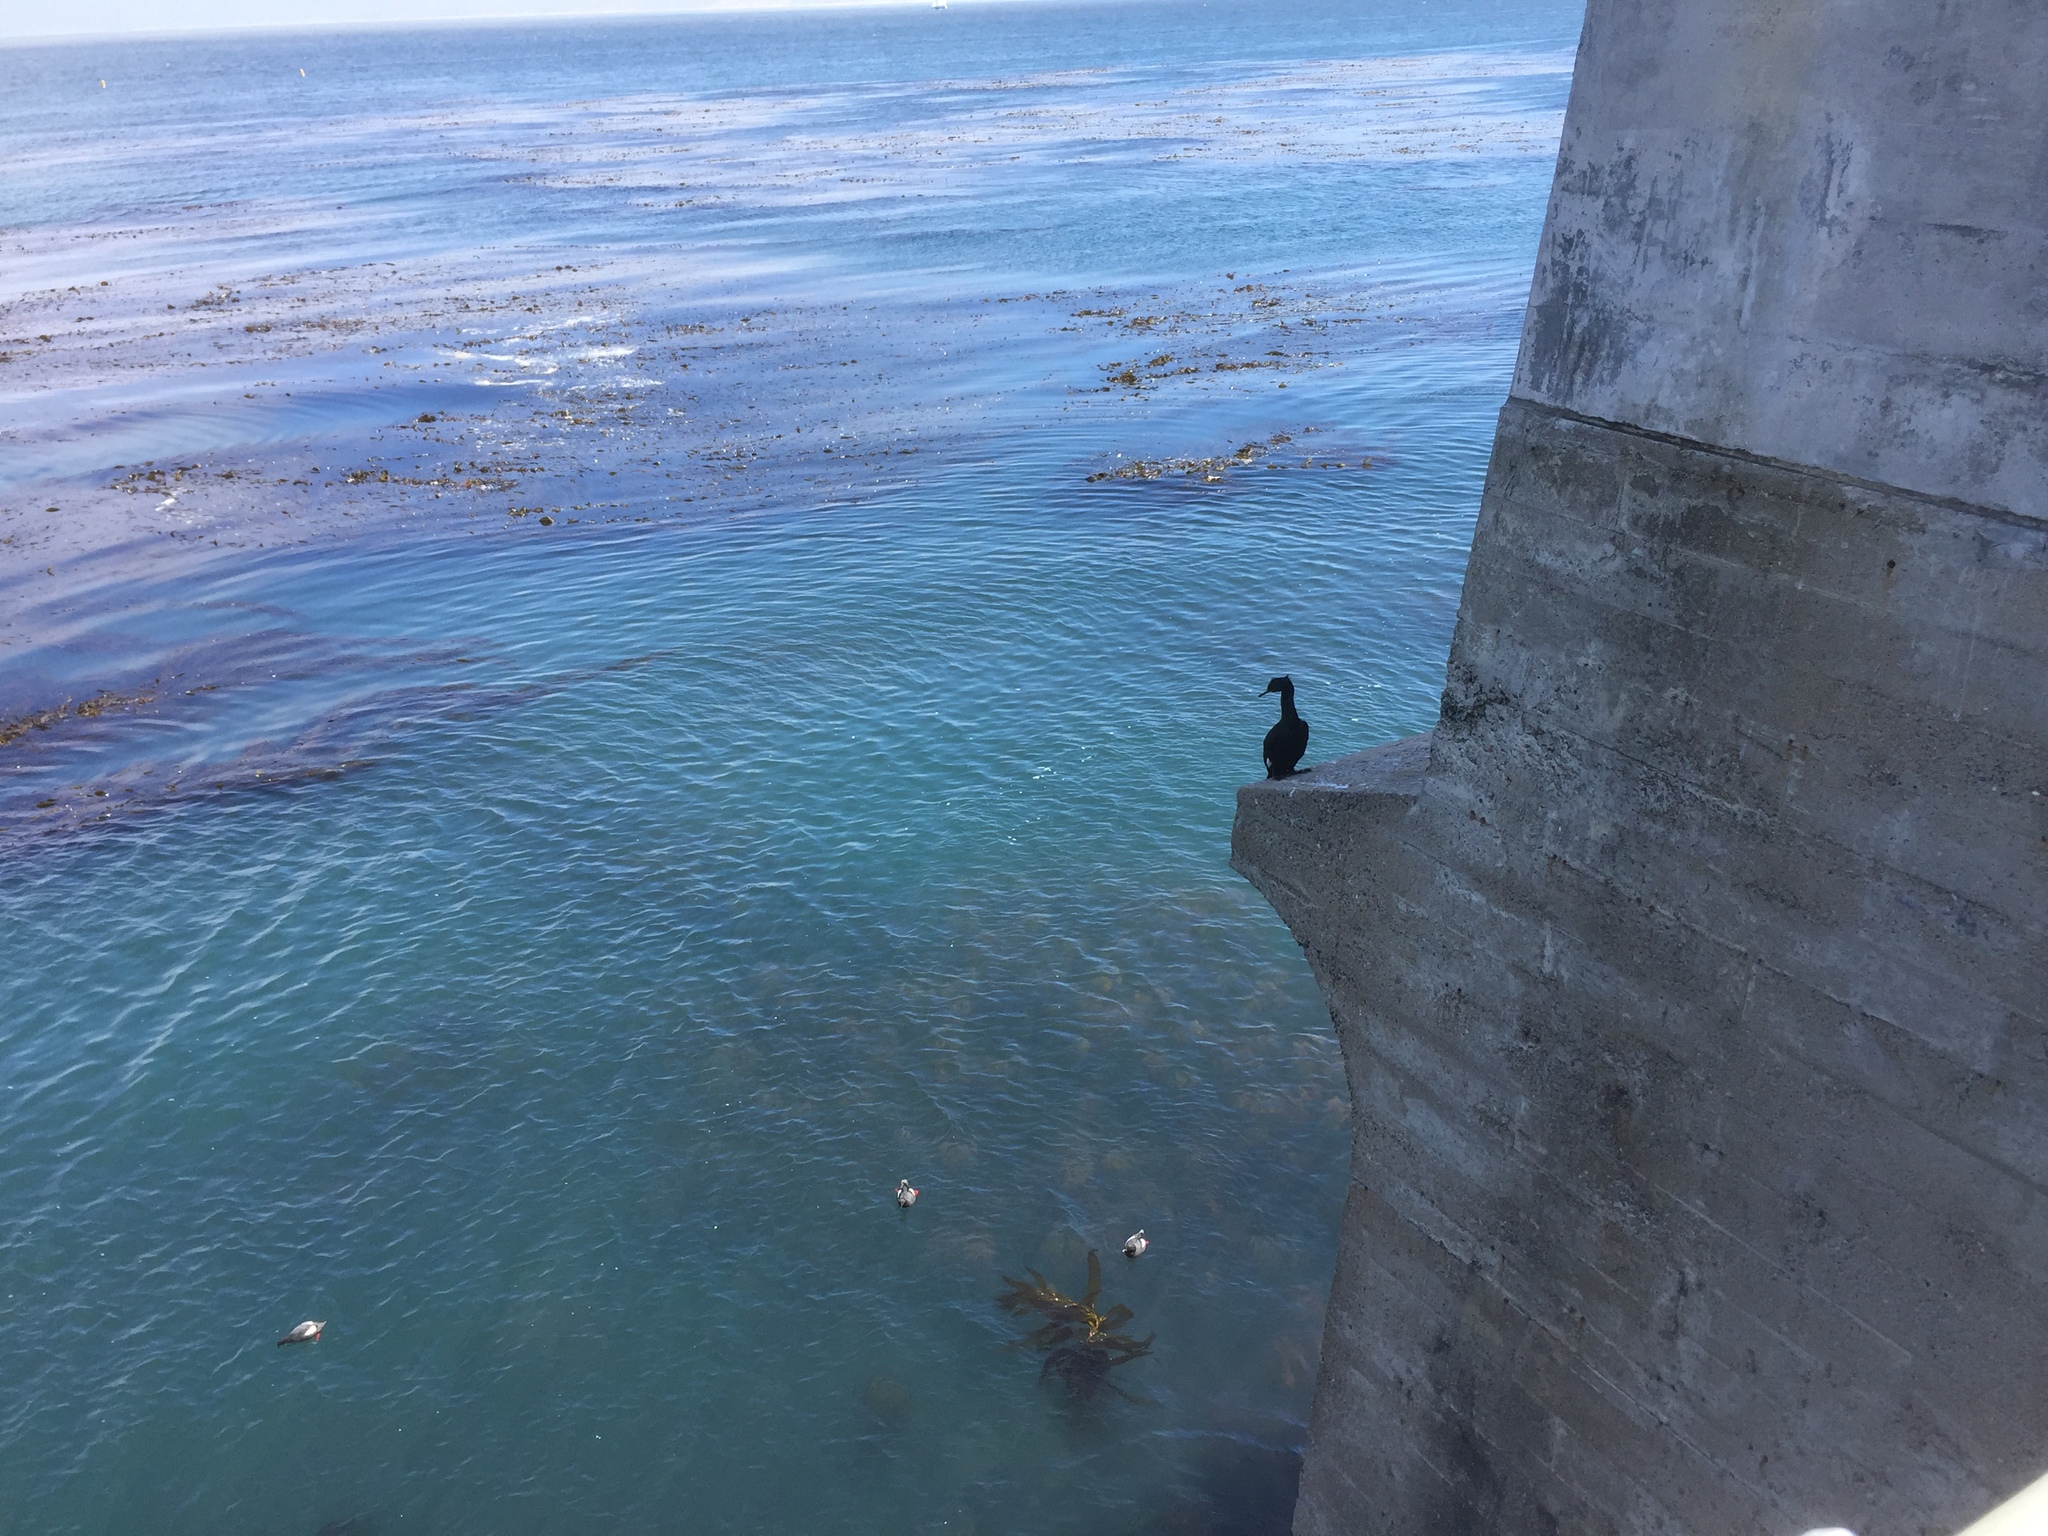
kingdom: Animalia
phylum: Chordata
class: Aves
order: Suliformes
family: Phalacrocoracidae
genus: Phalacrocorax
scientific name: Phalacrocorax pelagicus
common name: Pelagic cormorant
